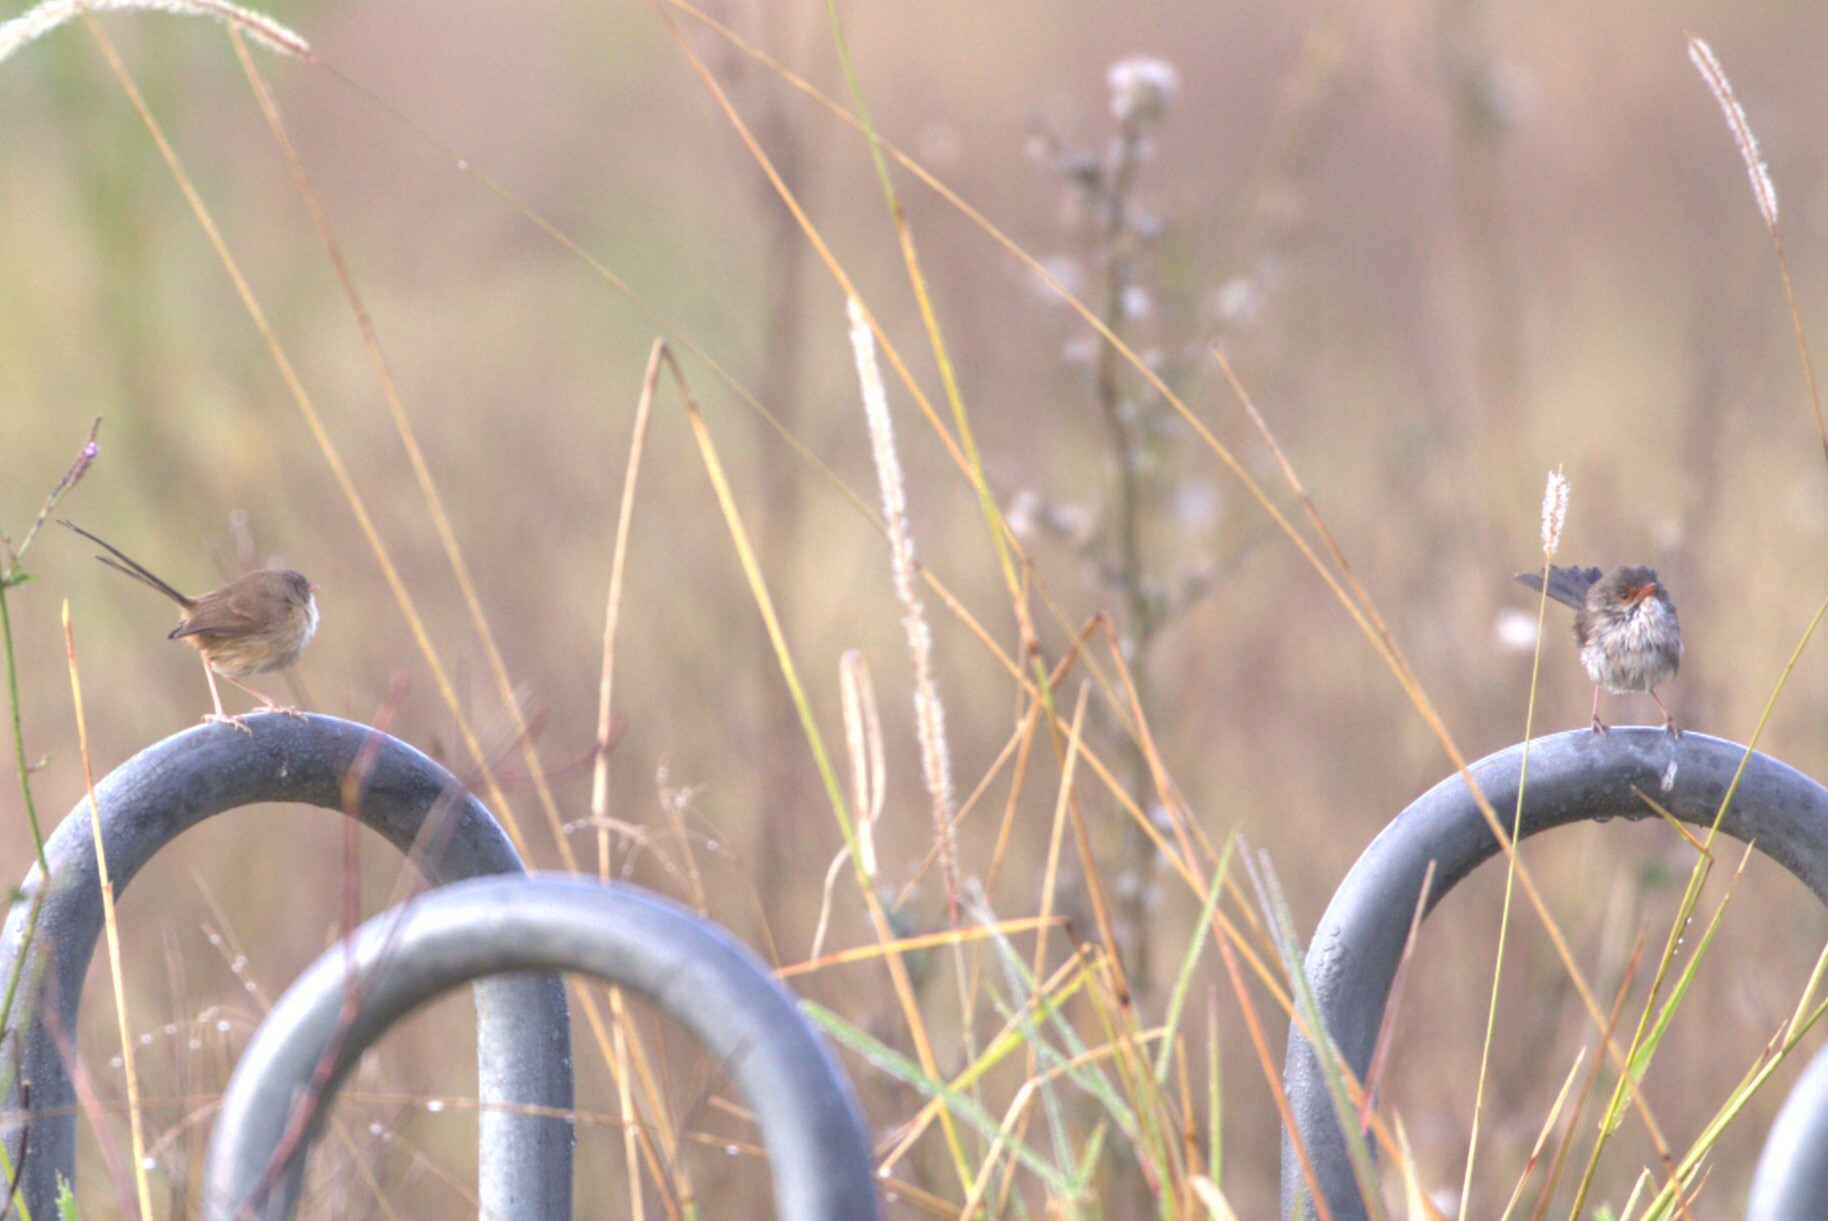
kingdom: Animalia
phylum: Chordata
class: Aves
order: Passeriformes
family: Maluridae
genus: Malurus
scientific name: Malurus cyaneus
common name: Superb fairywren
